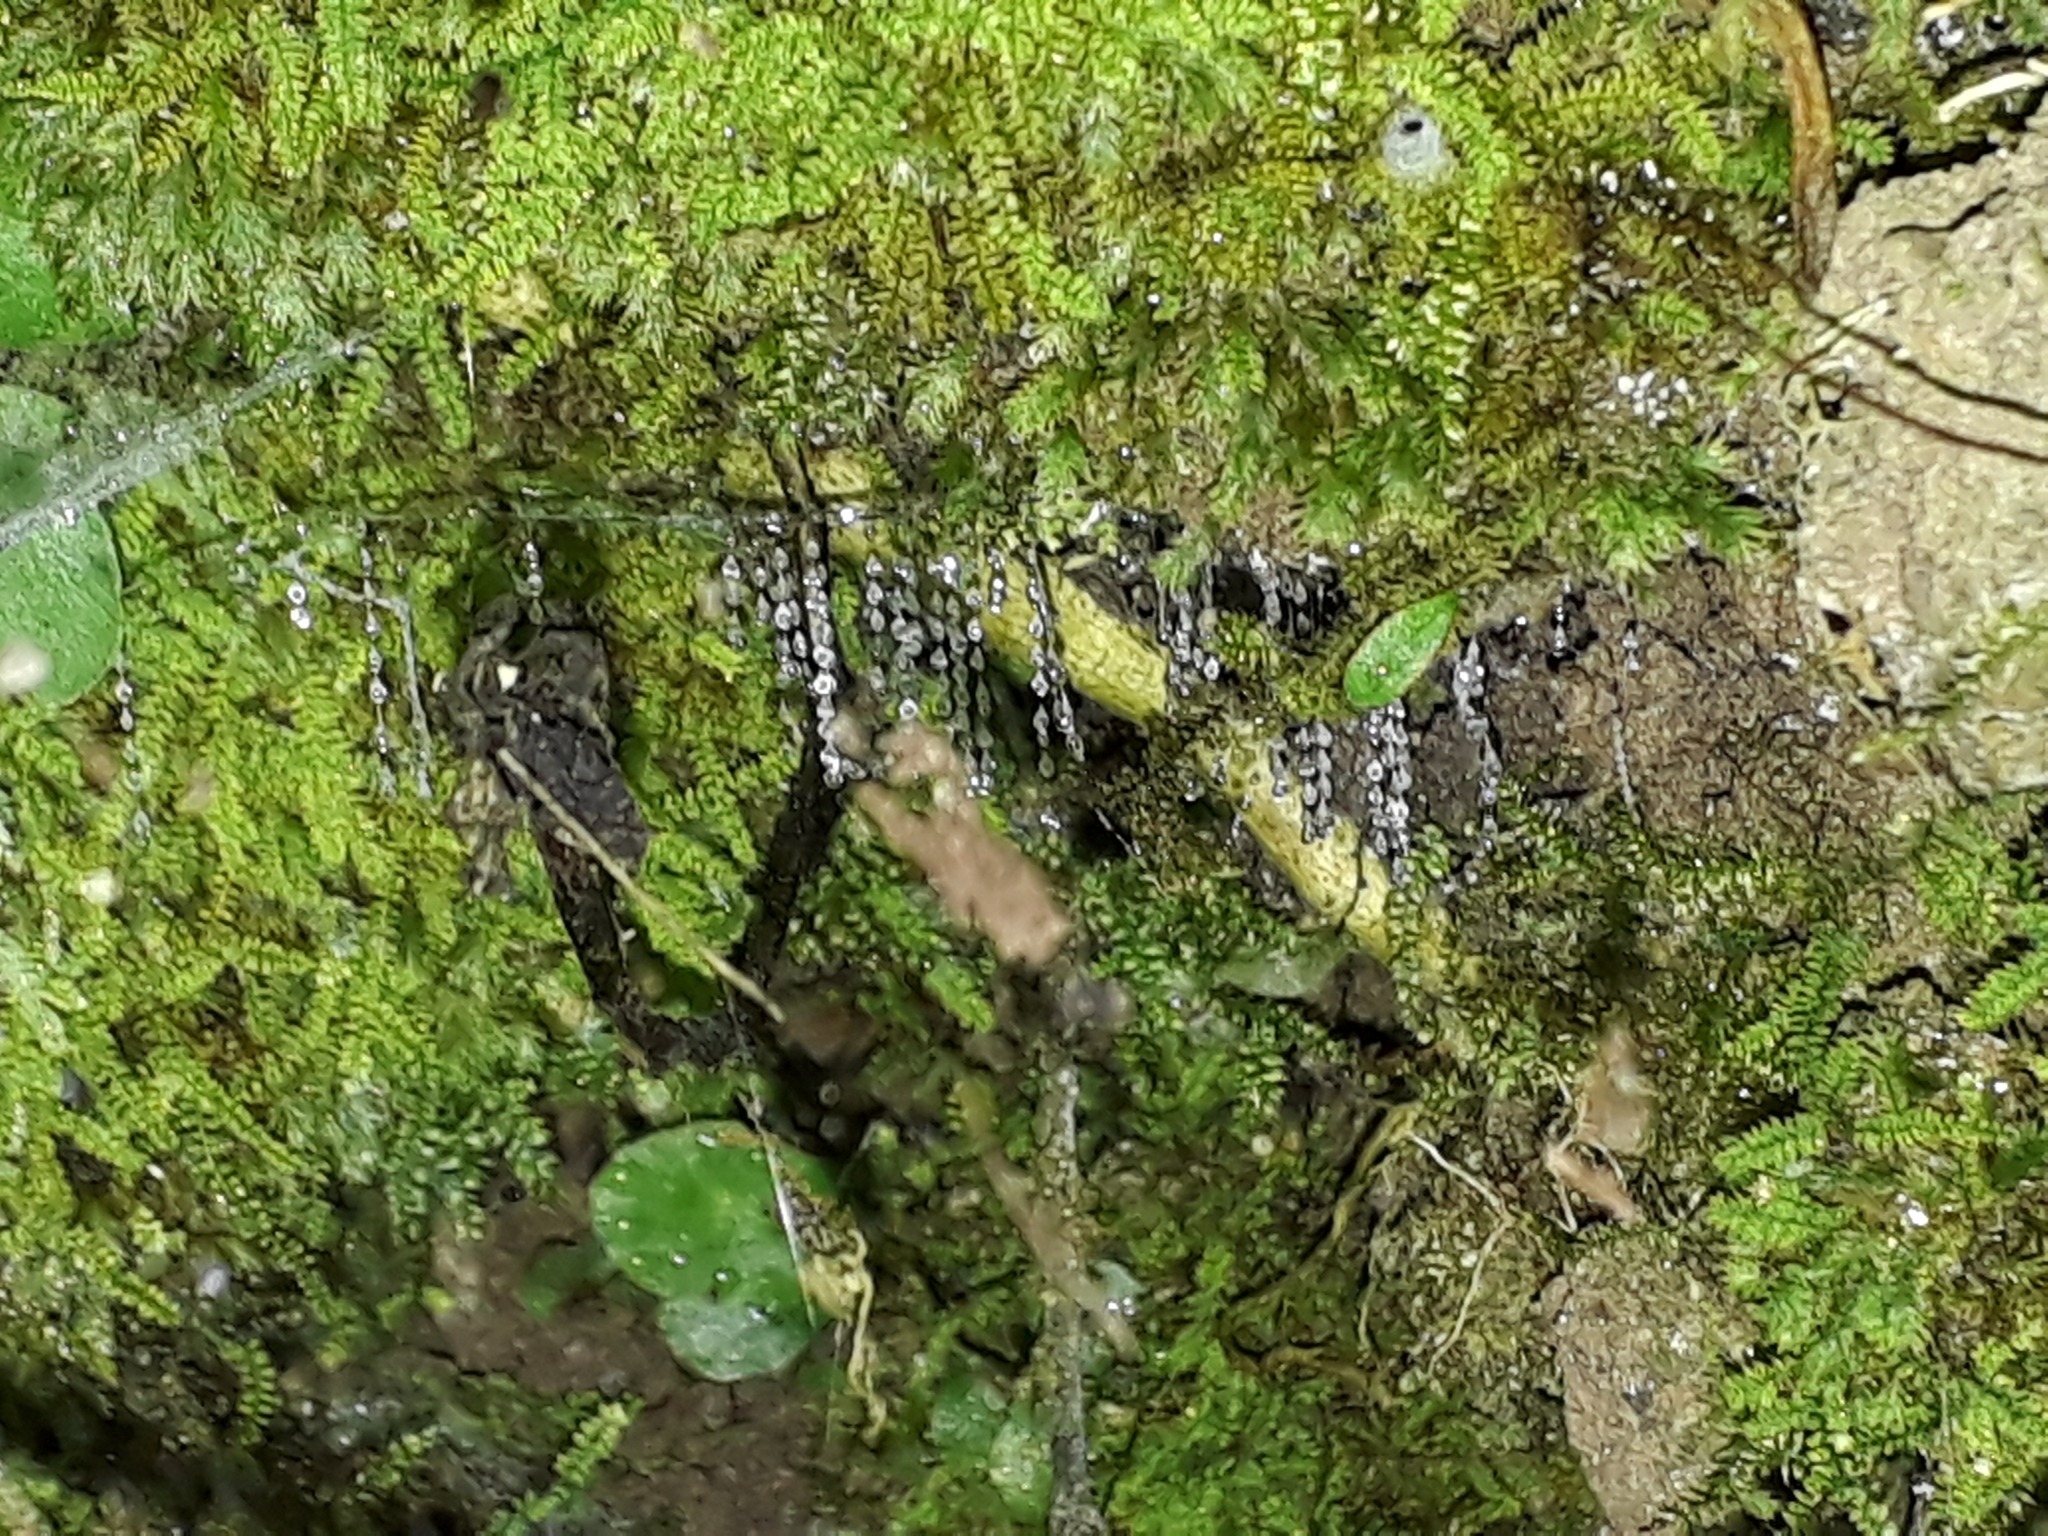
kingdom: Animalia
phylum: Arthropoda
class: Insecta
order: Diptera
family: Keroplatidae
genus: Arachnocampa
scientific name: Arachnocampa luminosa
